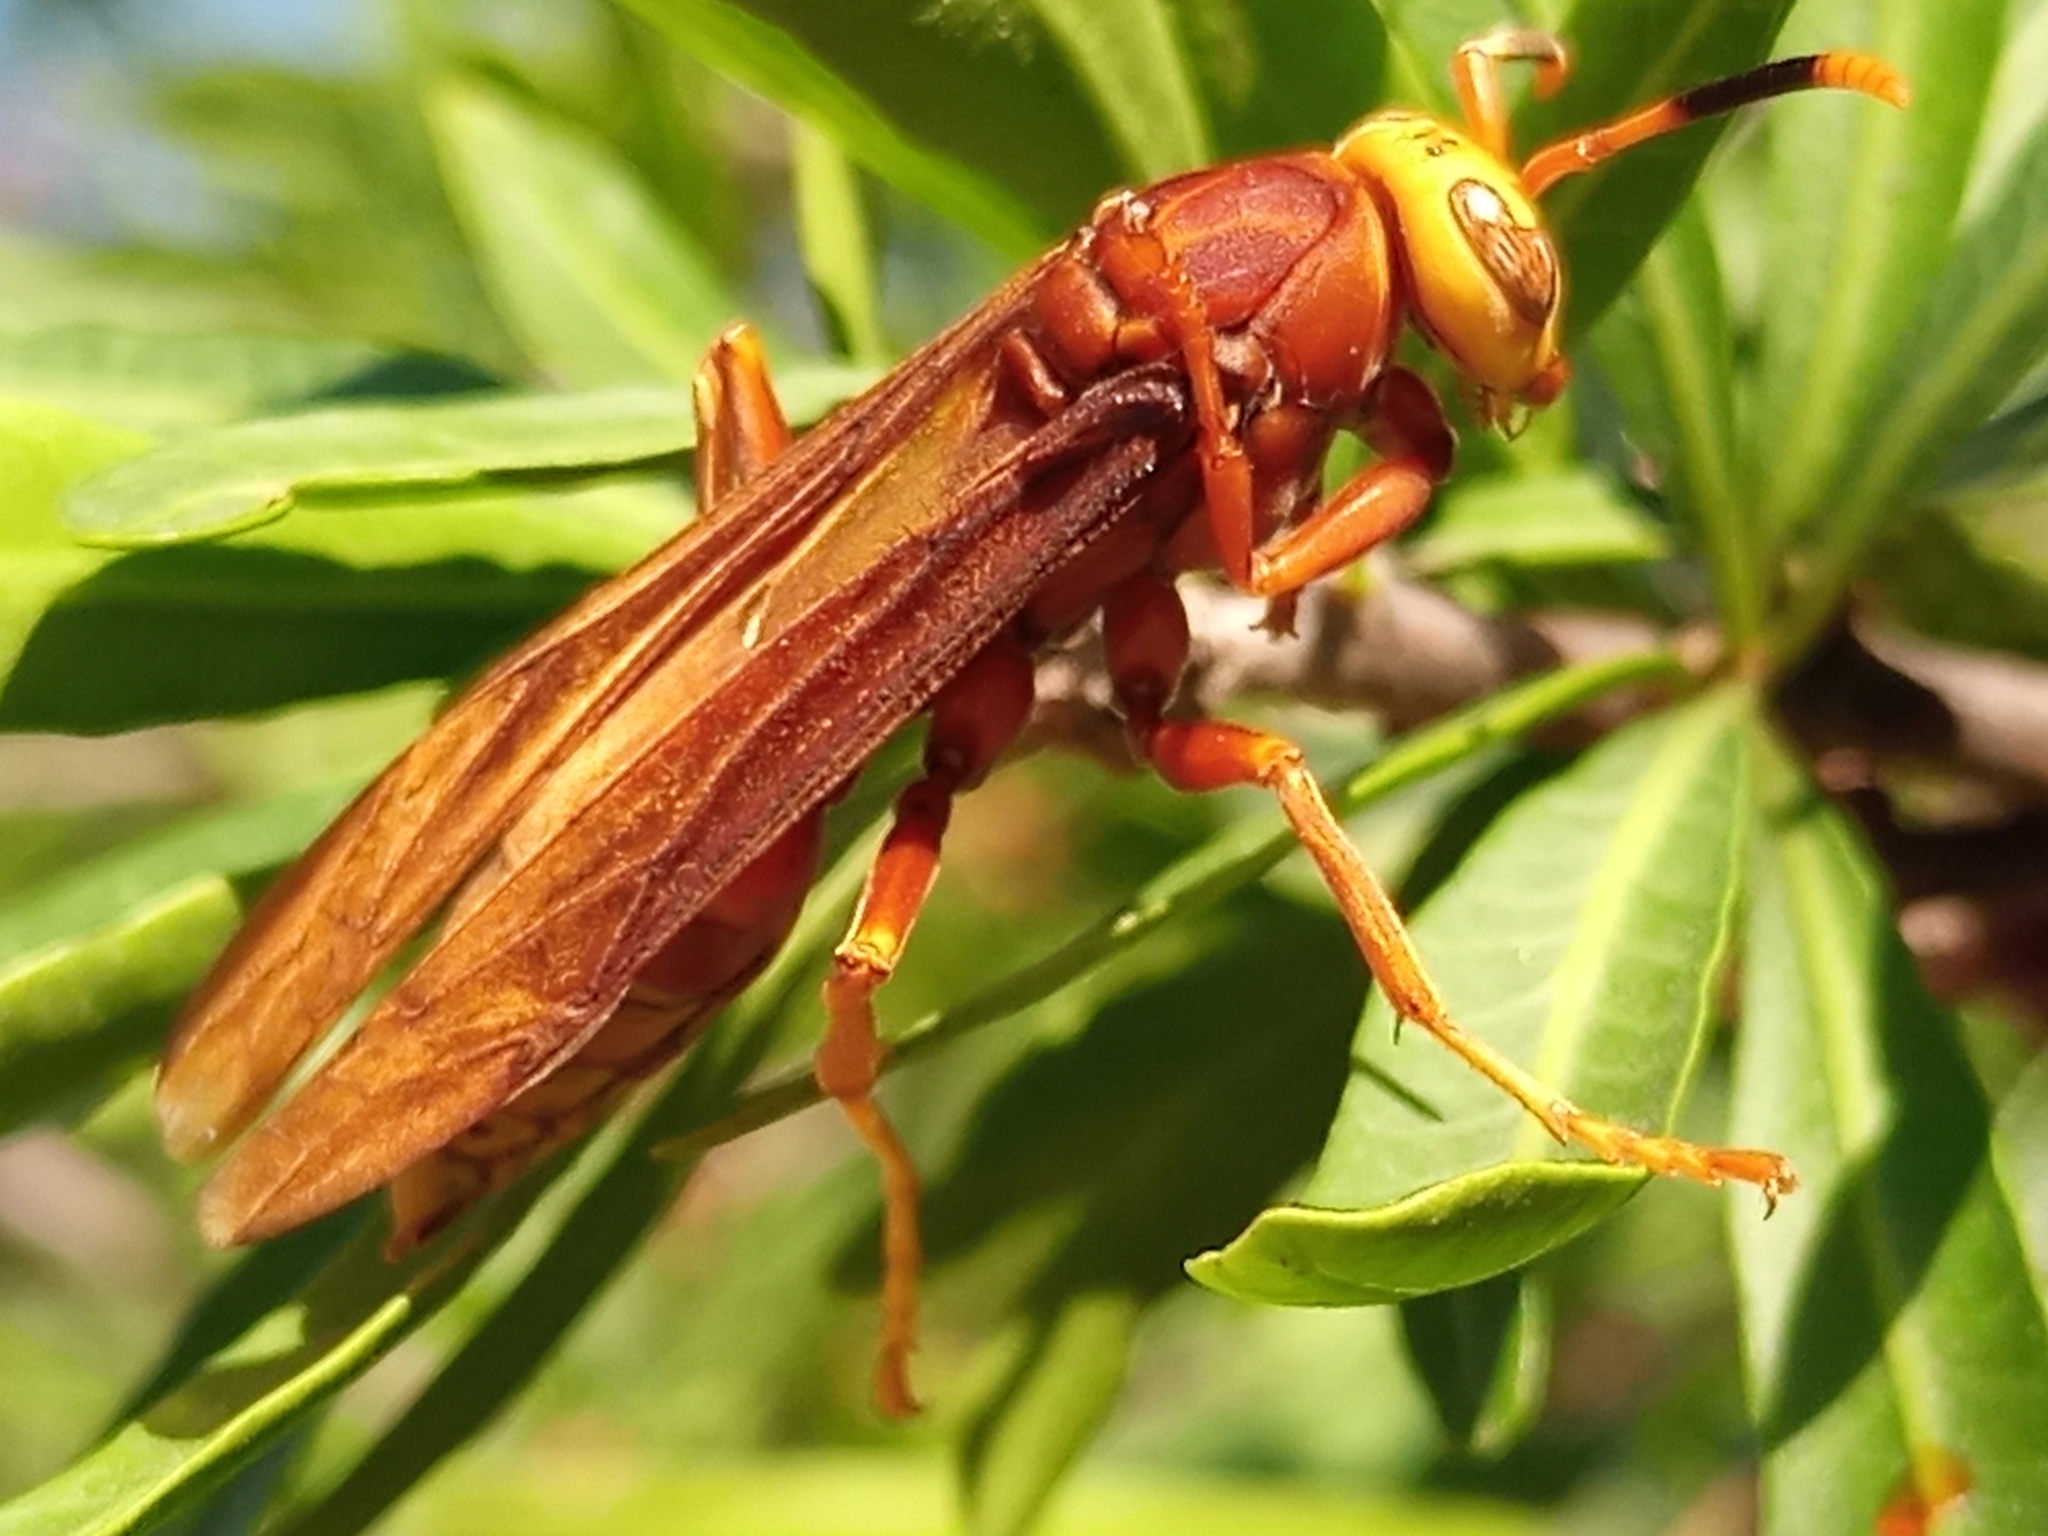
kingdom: Animalia
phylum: Arthropoda
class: Insecta
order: Hymenoptera
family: Eumenidae
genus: Polistes
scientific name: Polistes cavapyta
